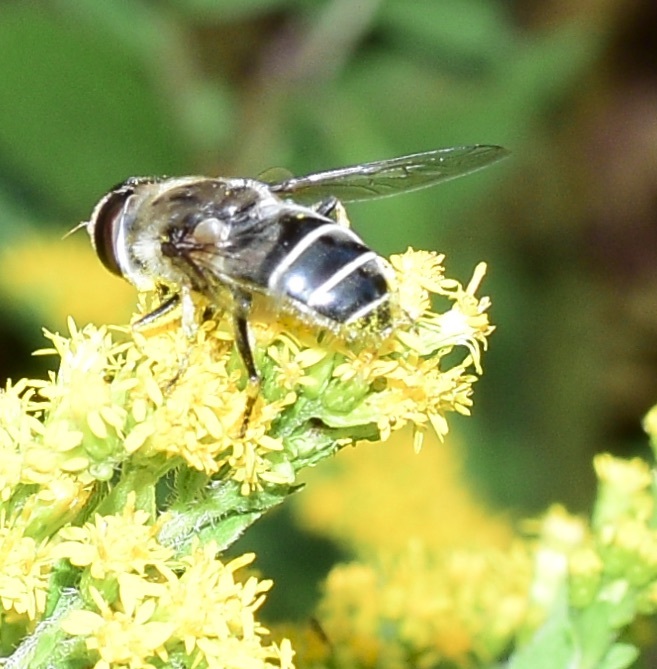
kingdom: Animalia
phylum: Arthropoda
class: Insecta
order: Diptera
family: Syrphidae
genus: Eristalis
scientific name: Eristalis dimidiata
